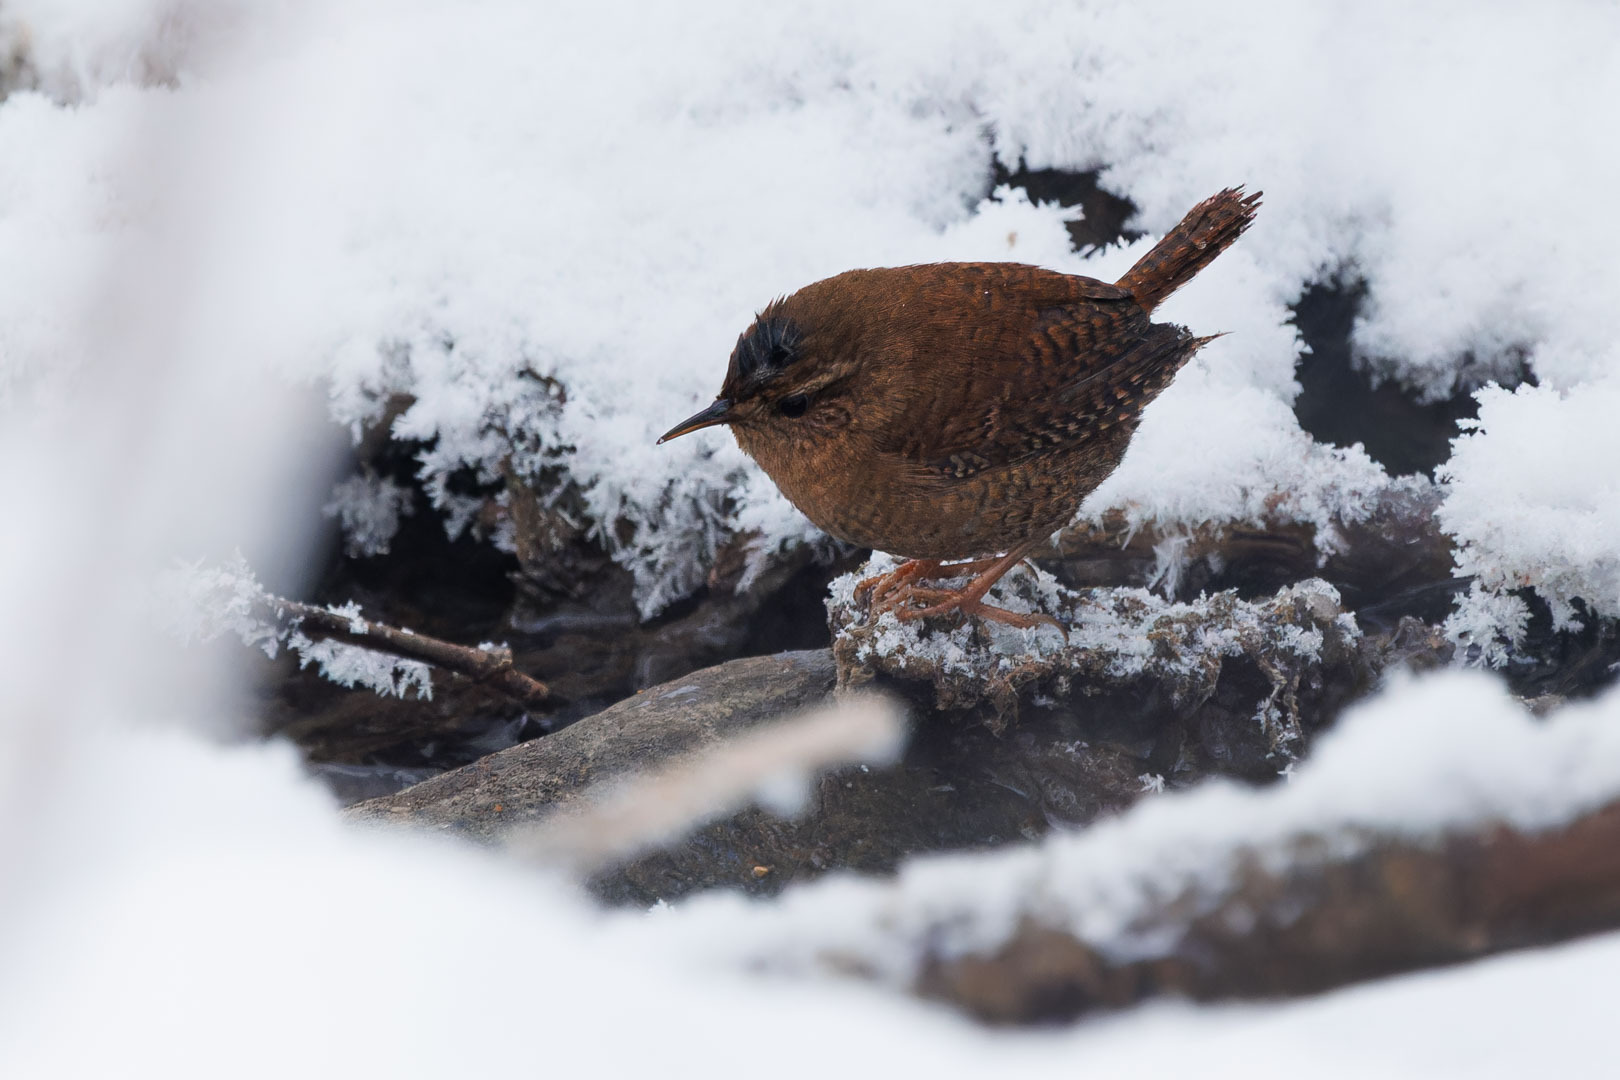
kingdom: Animalia
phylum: Chordata
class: Aves
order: Passeriformes
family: Troglodytidae
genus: Troglodytes
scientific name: Troglodytes troglodytes
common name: Eurasian wren
